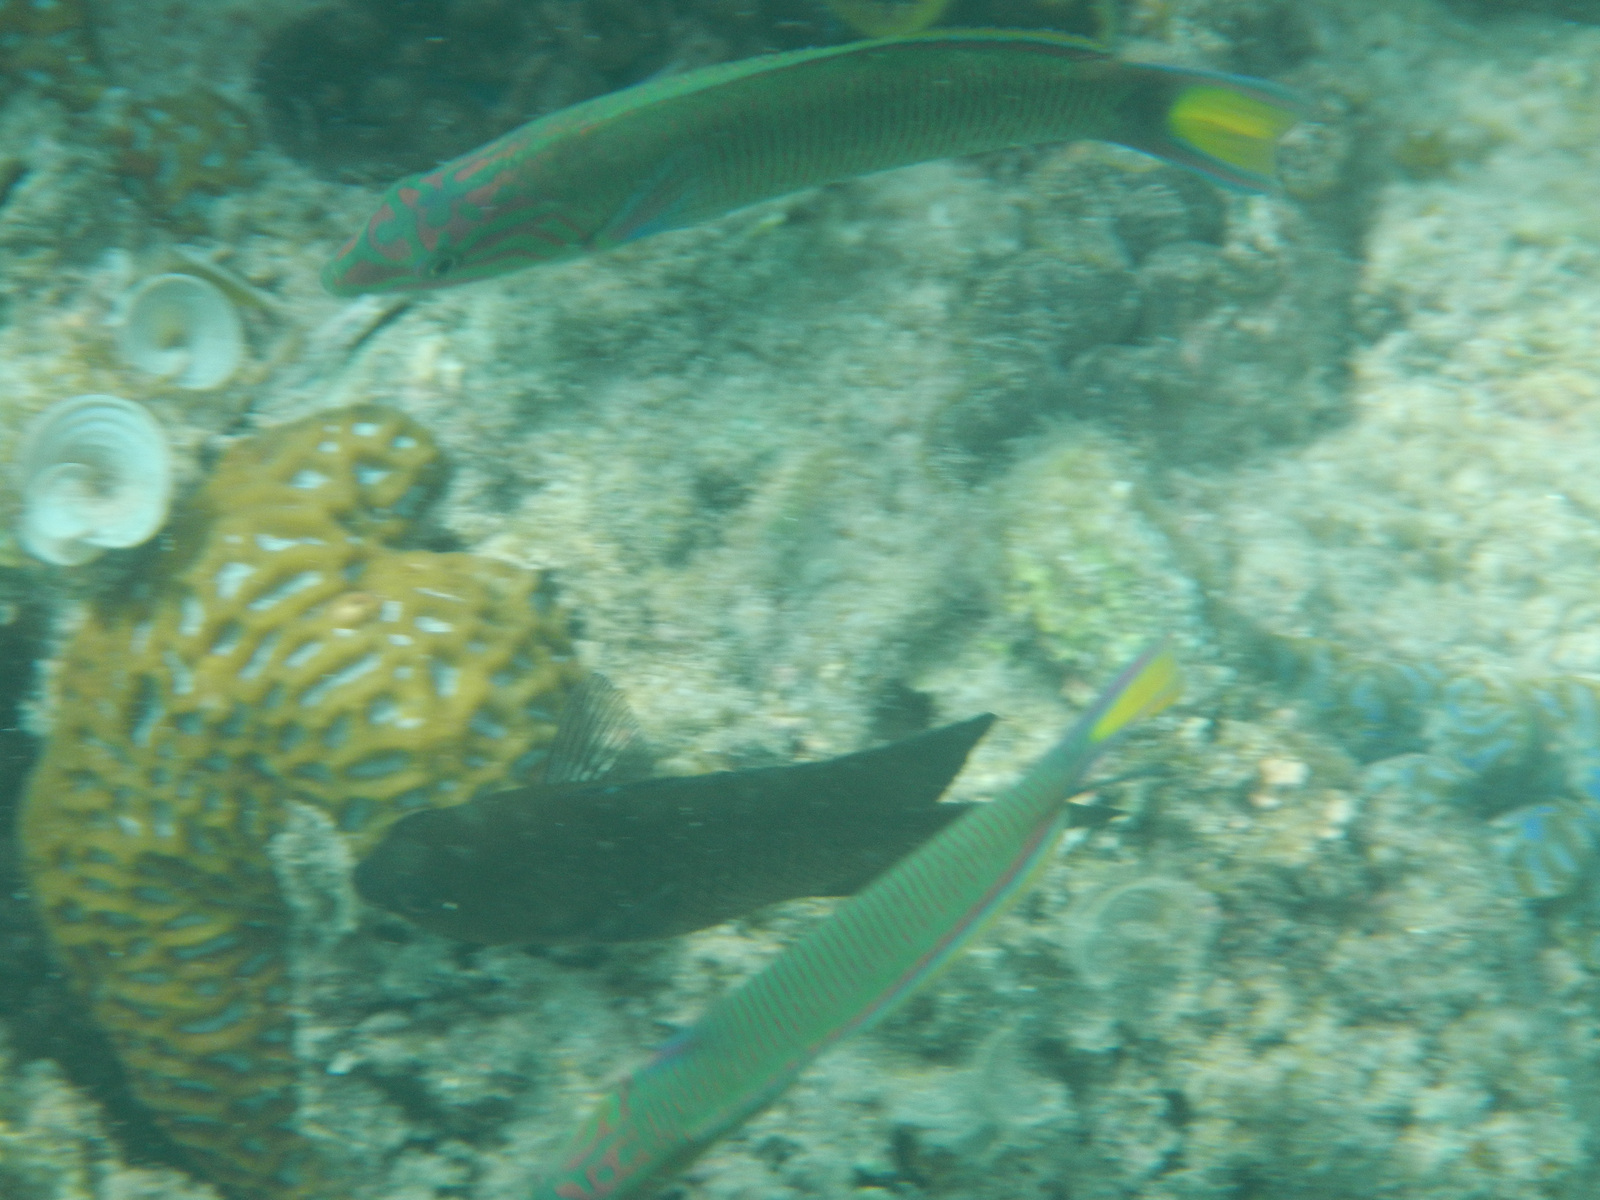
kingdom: Animalia
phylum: Chordata
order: Perciformes
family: Labridae
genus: Thalassoma
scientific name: Thalassoma lunare
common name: Blue wrasse
